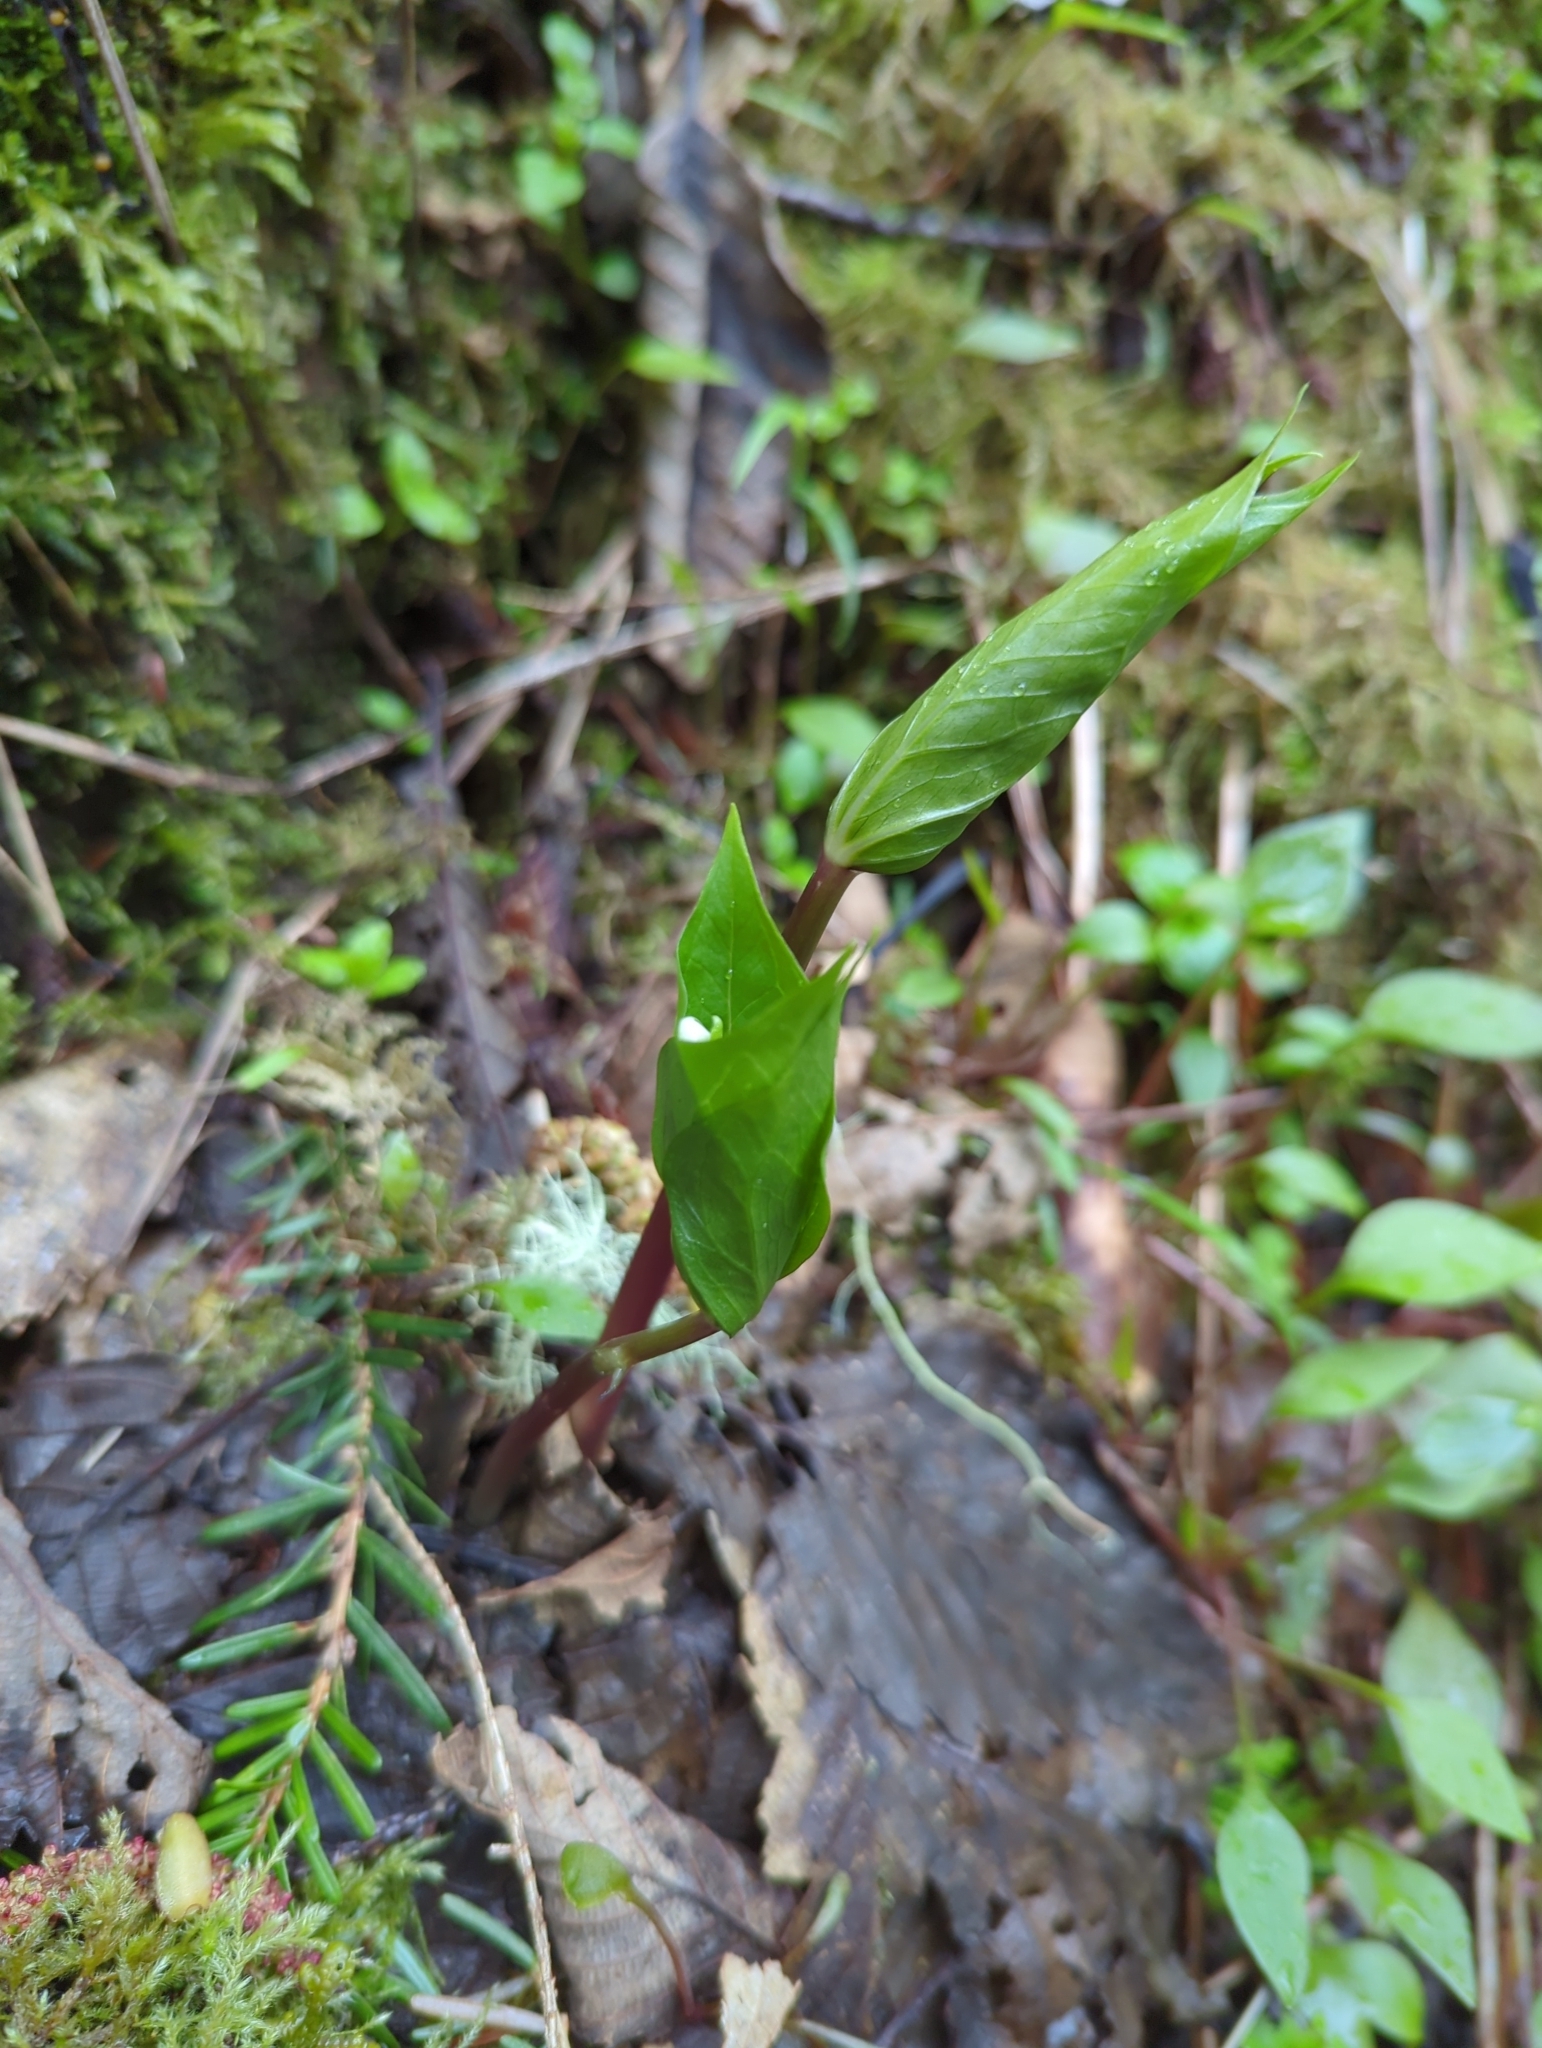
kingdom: Plantae
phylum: Tracheophyta
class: Liliopsida
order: Liliales
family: Melanthiaceae
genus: Trillium
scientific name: Trillium ovatum
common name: Pacific trillium
